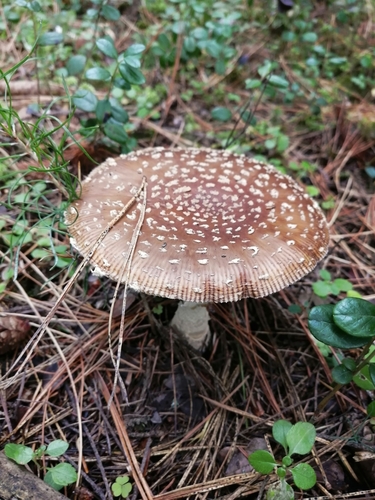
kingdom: Fungi
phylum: Basidiomycota
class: Agaricomycetes
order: Agaricales
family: Amanitaceae
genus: Amanita
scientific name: Amanita regalis
